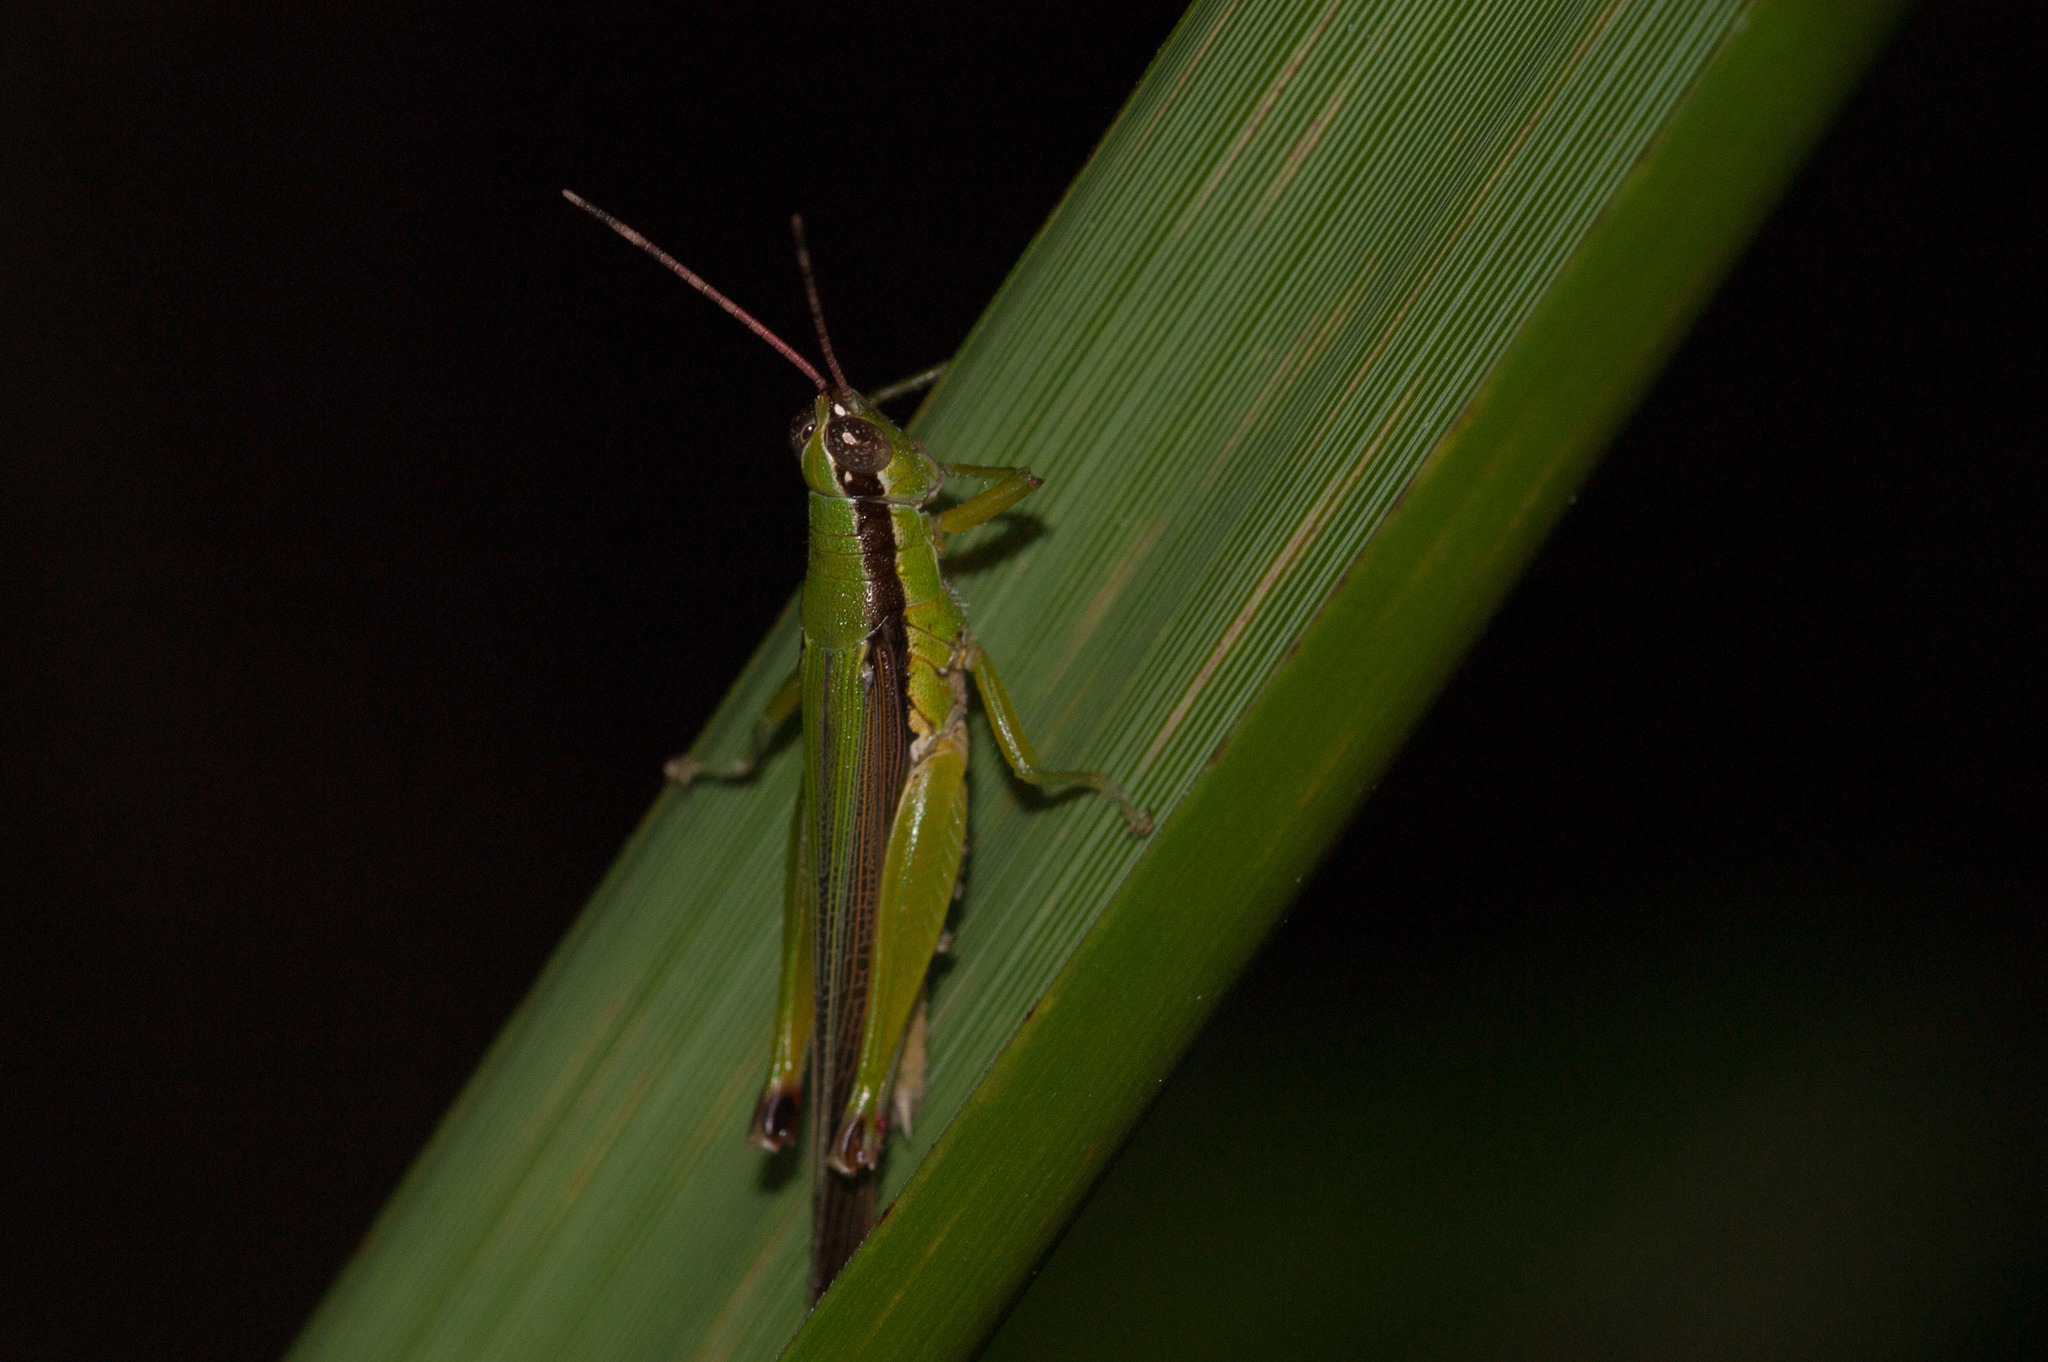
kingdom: Animalia
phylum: Arthropoda
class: Insecta
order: Orthoptera
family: Acrididae
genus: Gesonula
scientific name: Gesonula mundata
